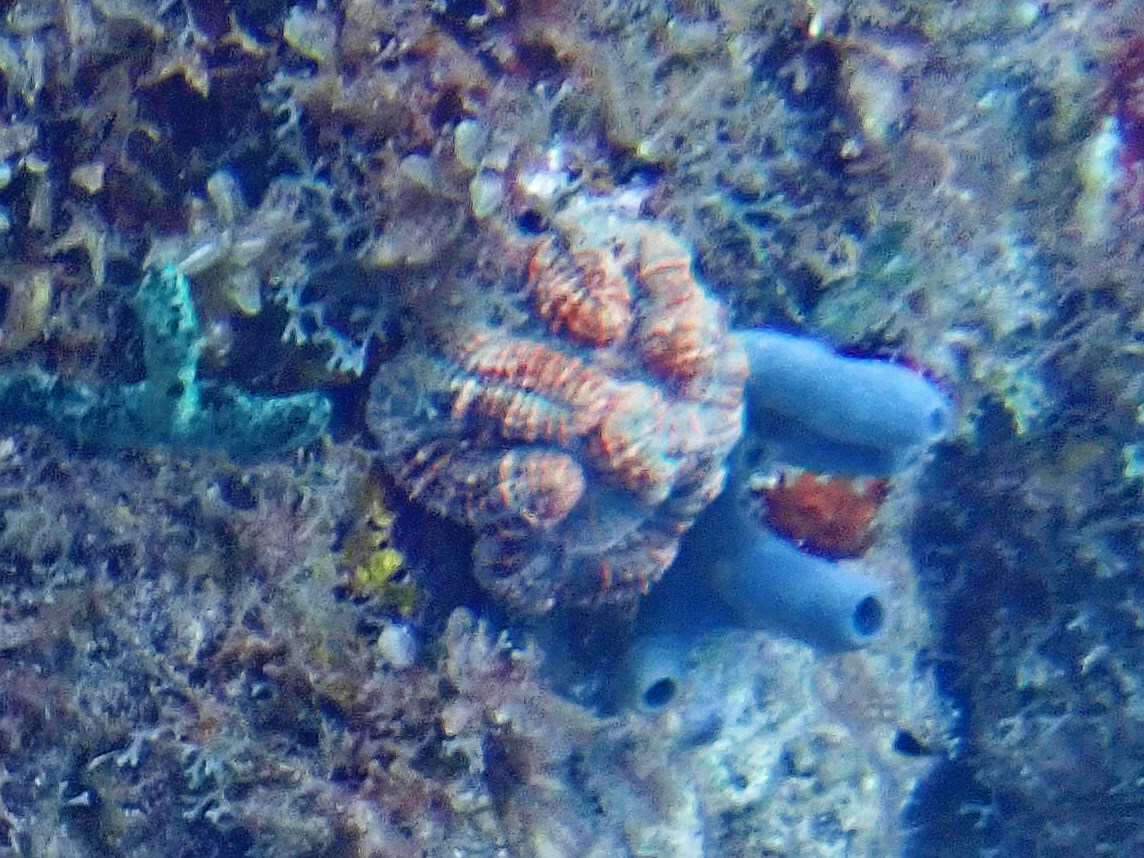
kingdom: Animalia
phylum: Cnidaria
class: Anthozoa
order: Scleractinia
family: Faviidae
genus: Mussa
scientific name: Mussa angulosa
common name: Spiny flower coral
